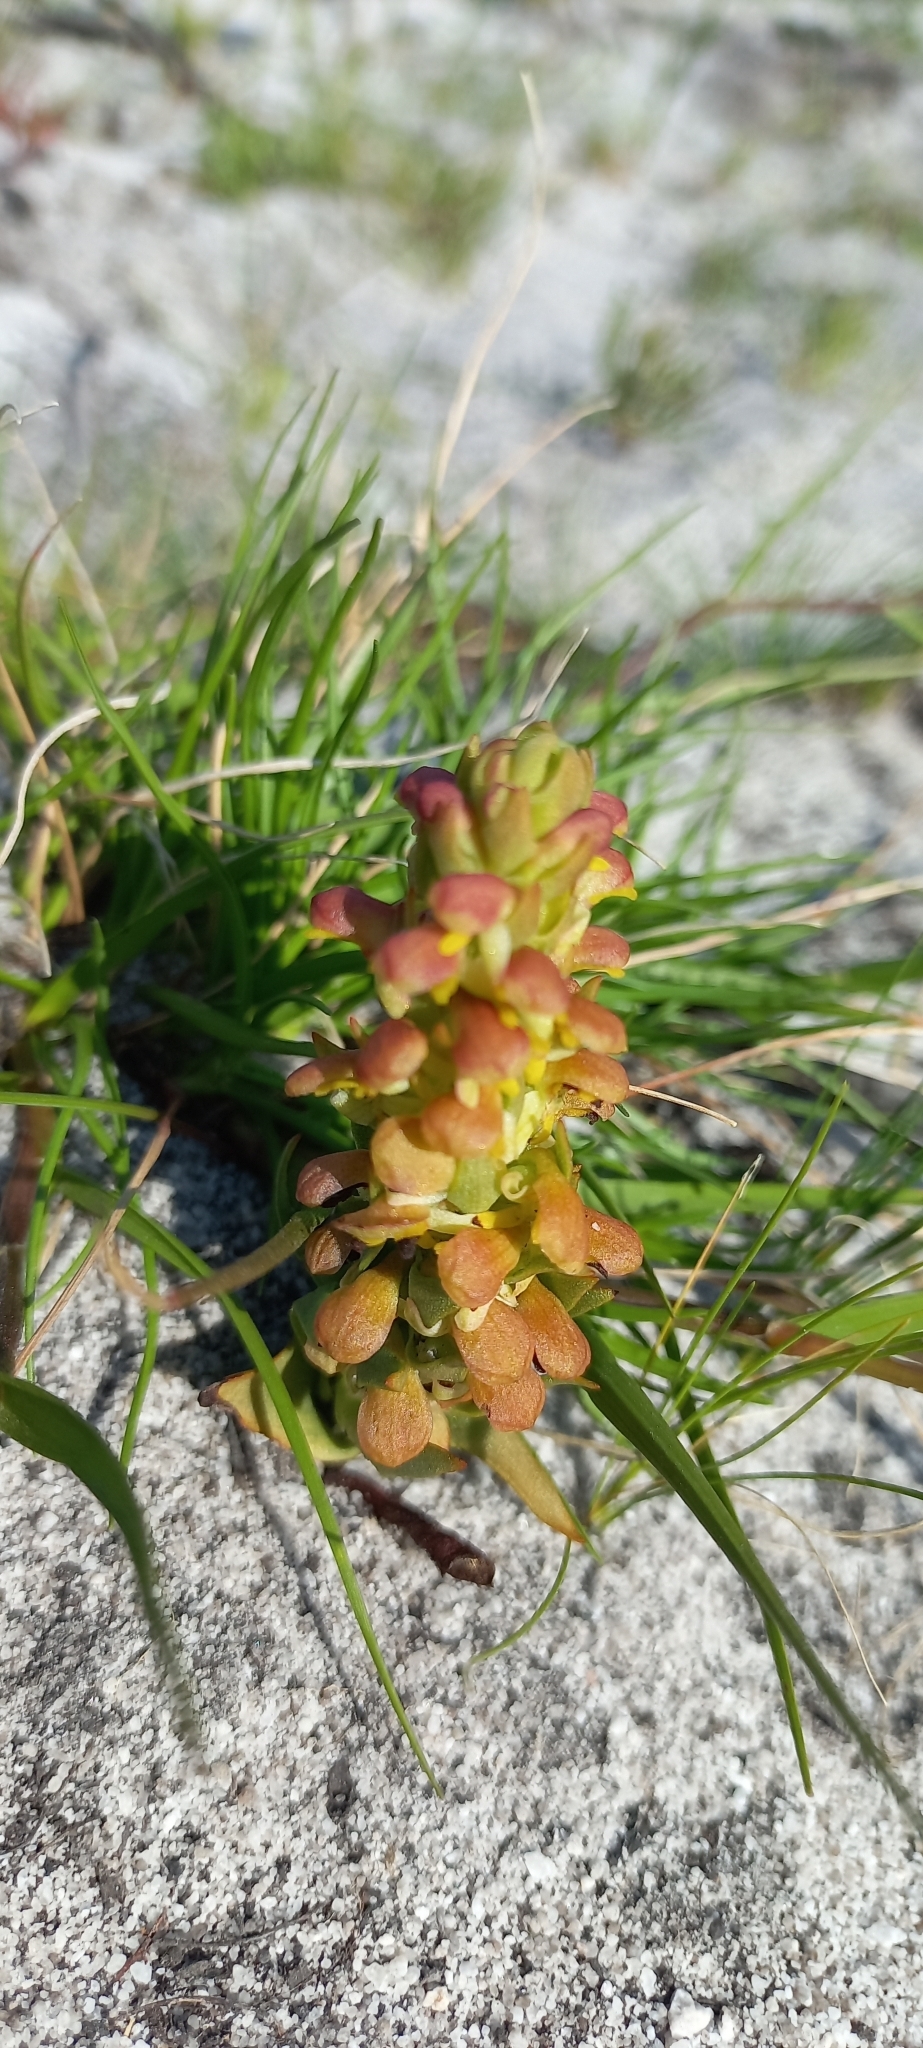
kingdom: Plantae
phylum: Tracheophyta
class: Liliopsida
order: Asparagales
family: Orchidaceae
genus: Disa
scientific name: Disa pygmaea
